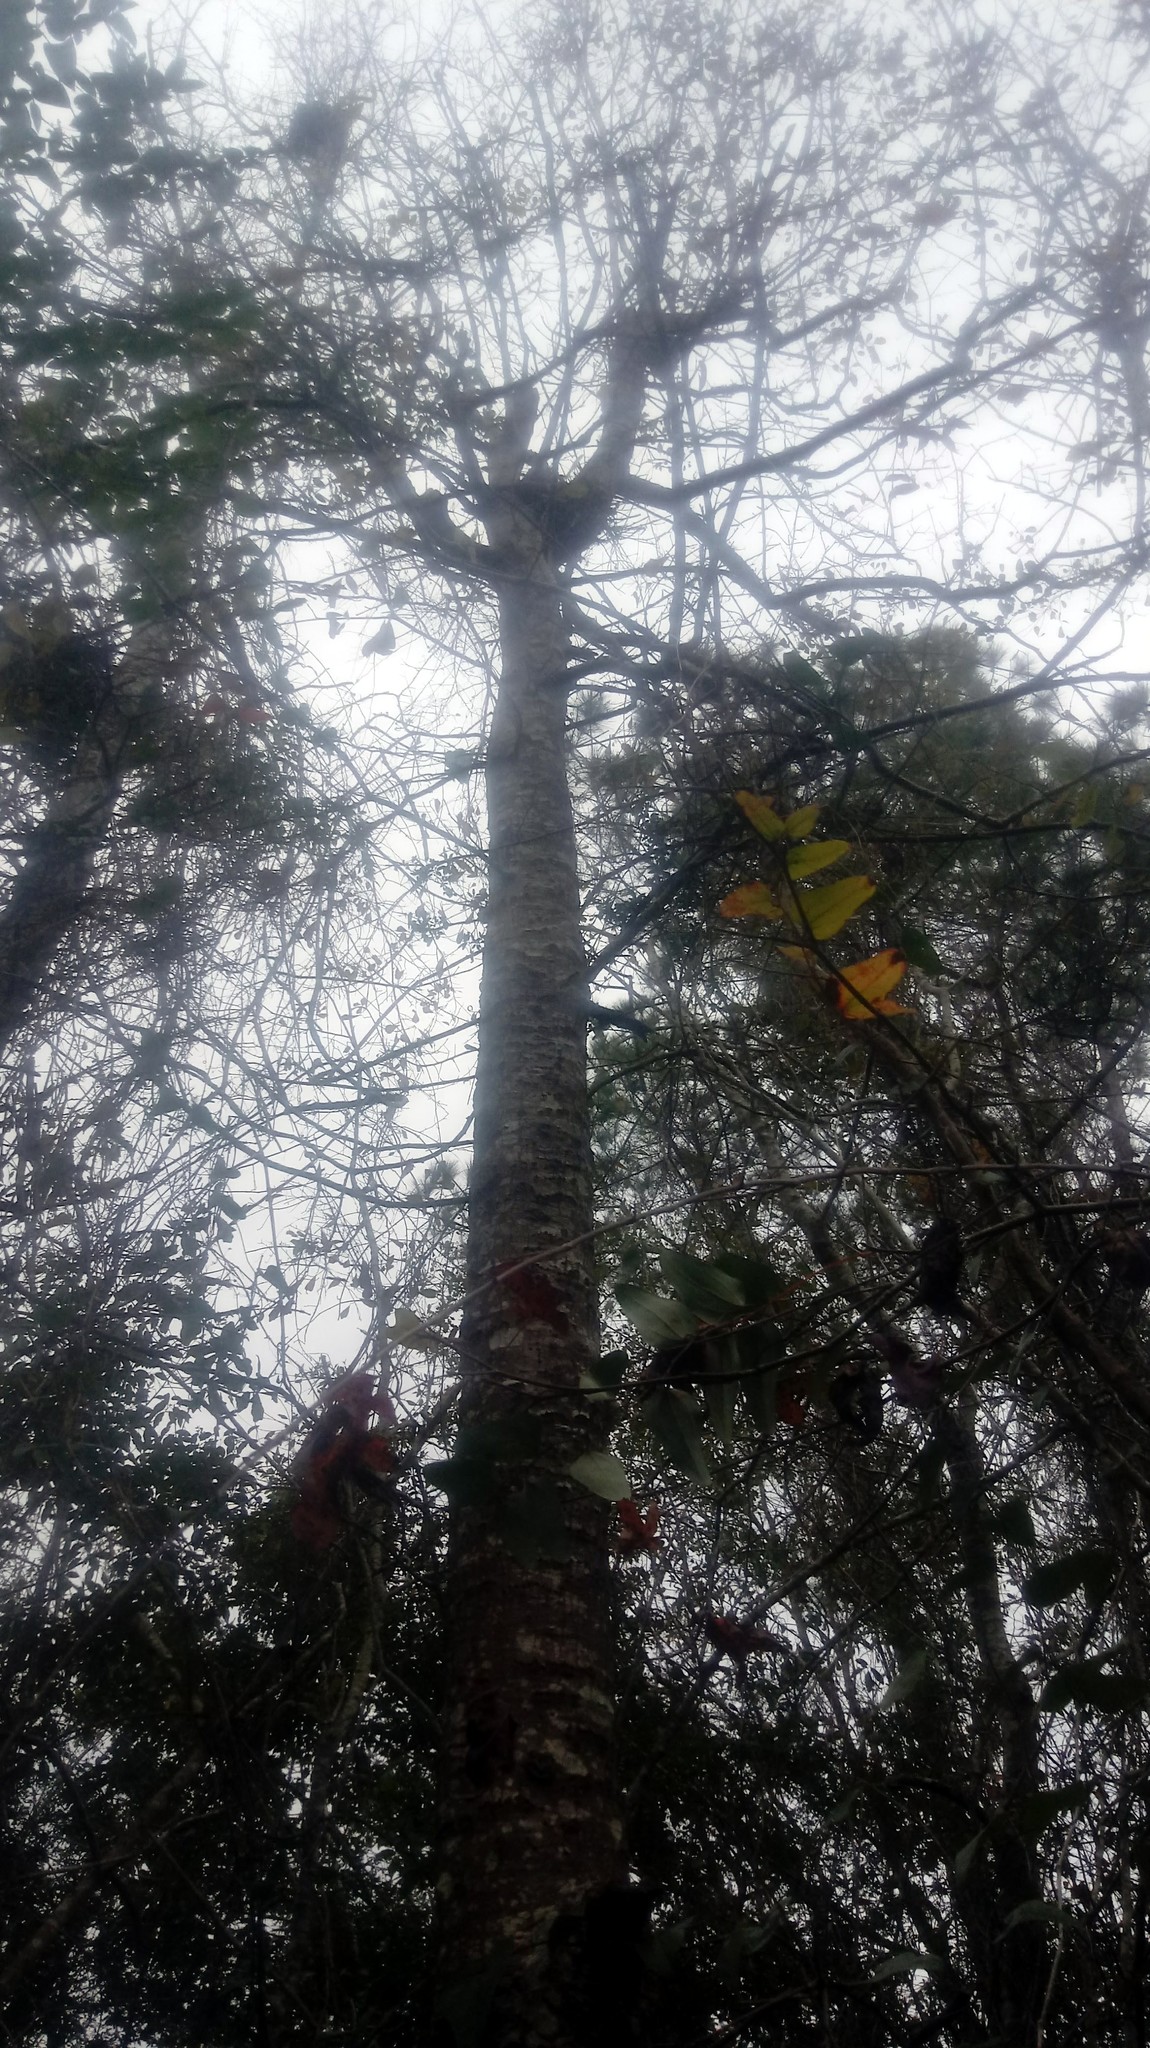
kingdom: Plantae
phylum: Tracheophyta
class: Magnoliopsida
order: Fagales
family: Fagaceae
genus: Quercus
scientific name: Quercus nigra
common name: Water oak
